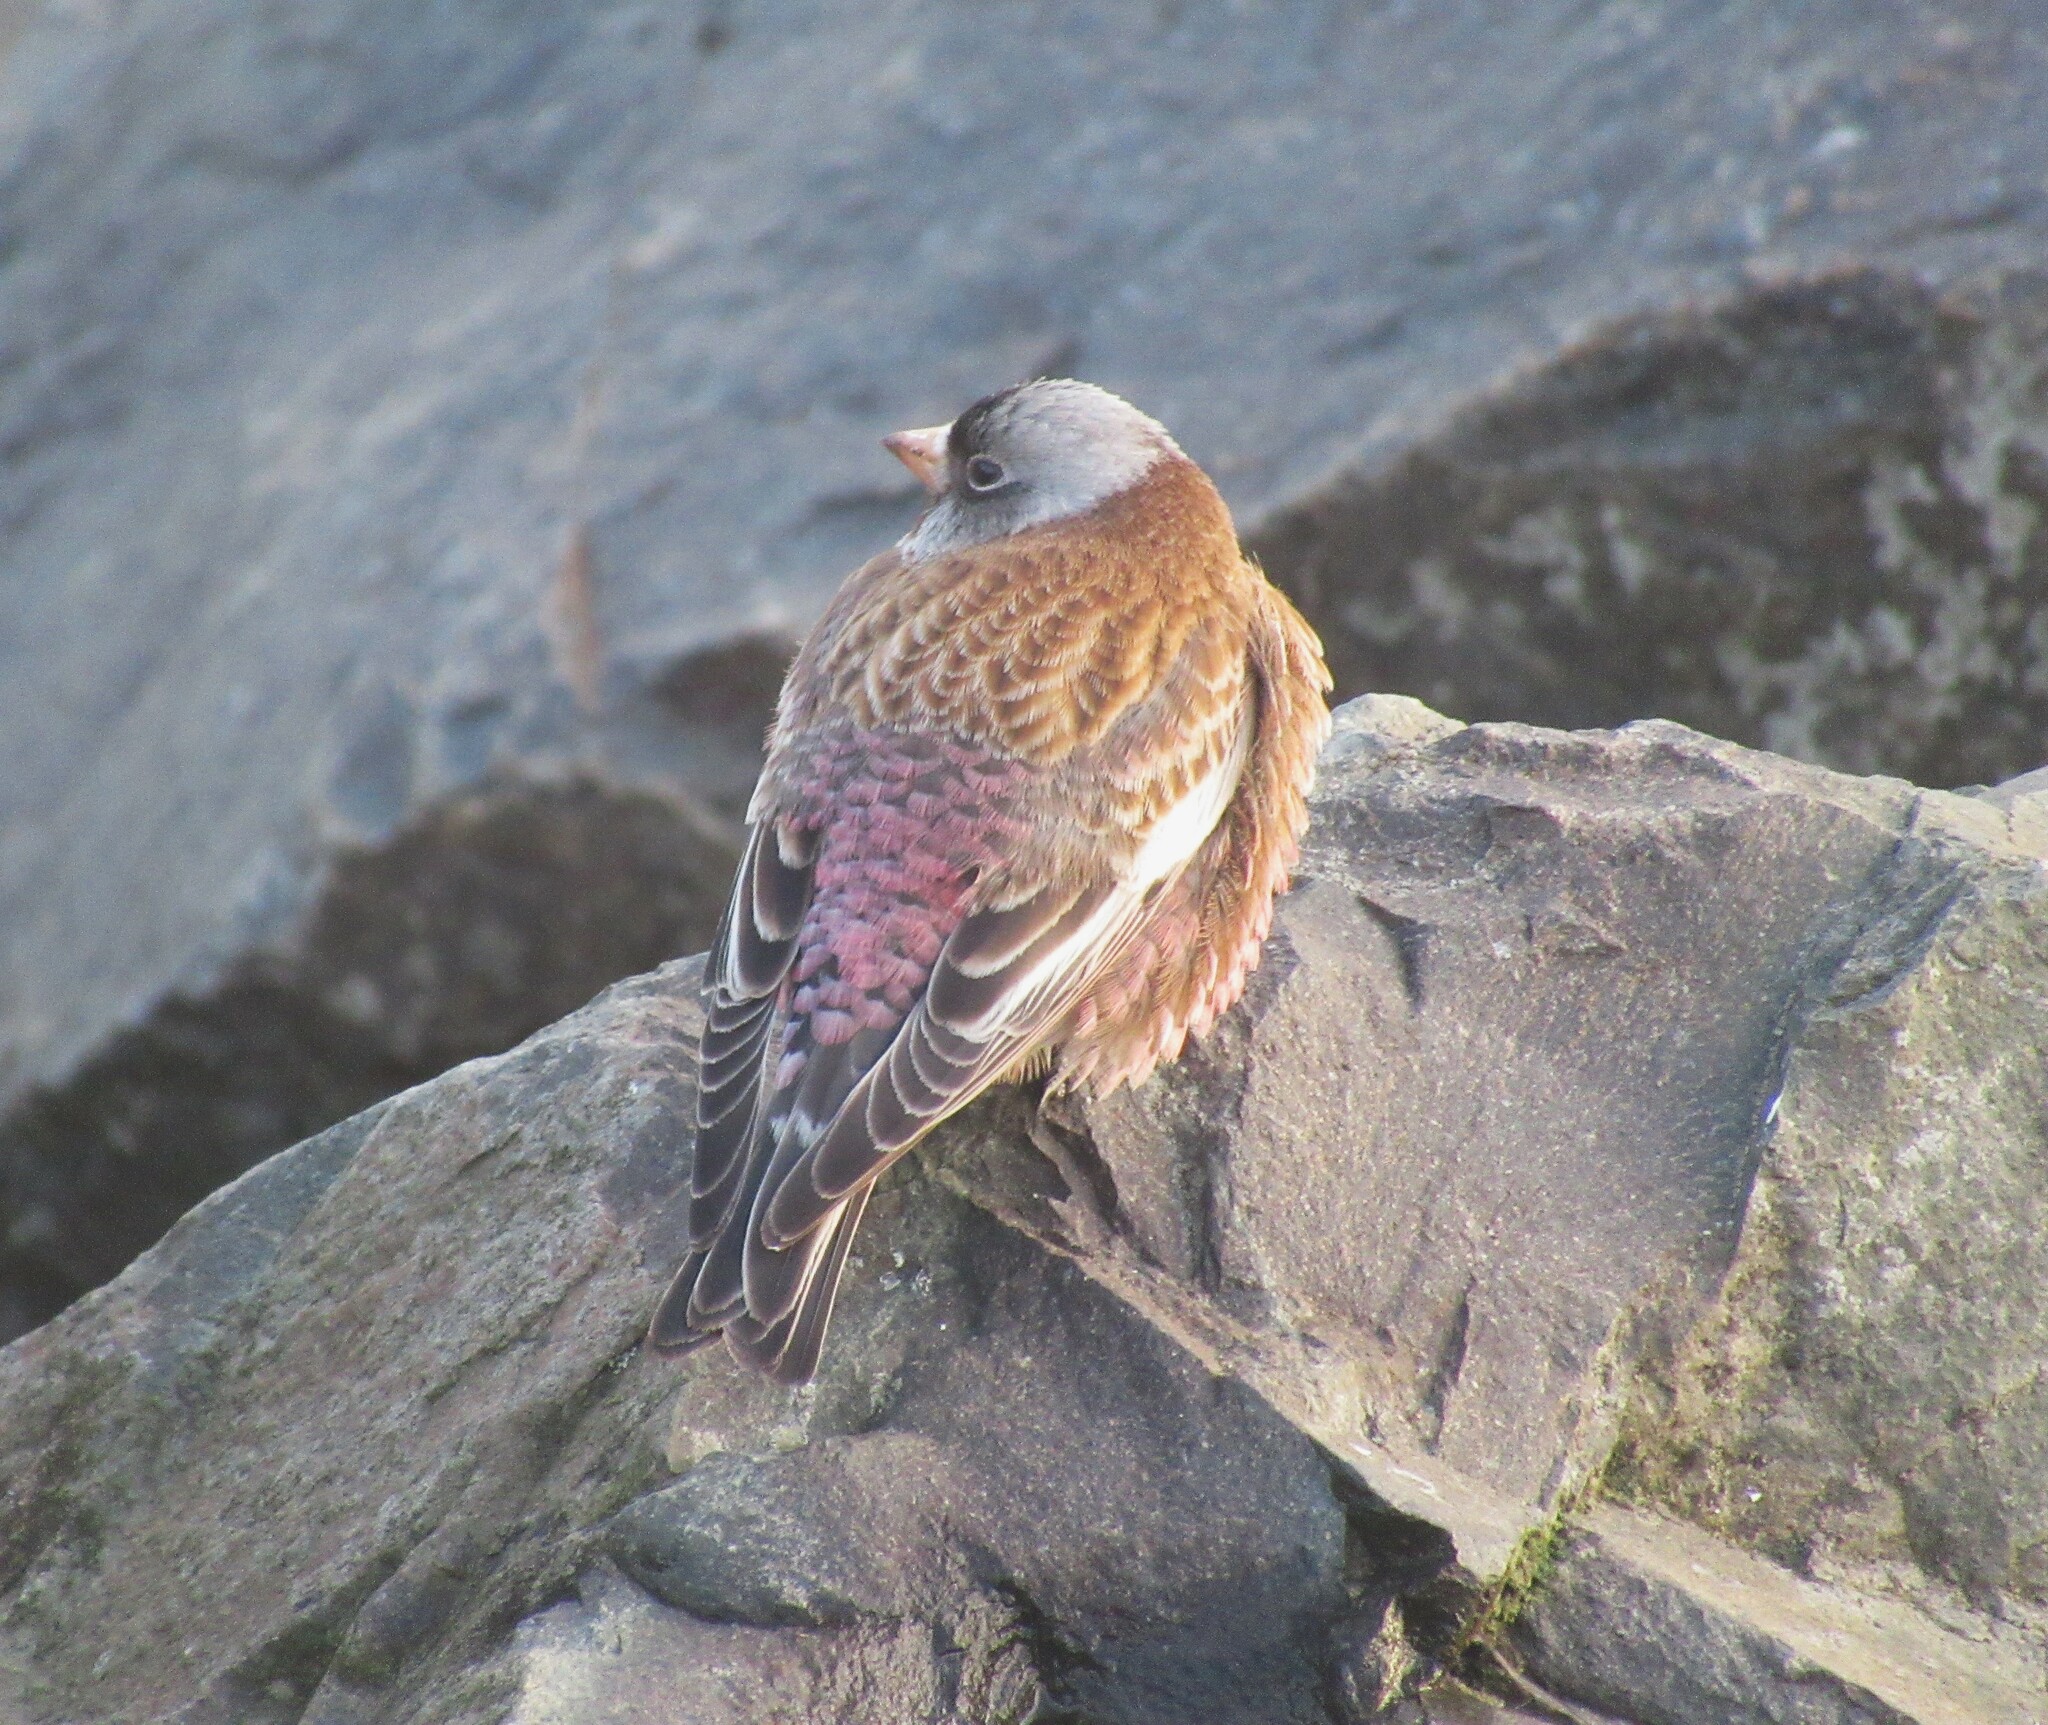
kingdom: Animalia
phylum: Chordata
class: Aves
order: Passeriformes
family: Fringillidae
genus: Leucosticte
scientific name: Leucosticte tephrocotis
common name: Gray-crowned rosy-finch
